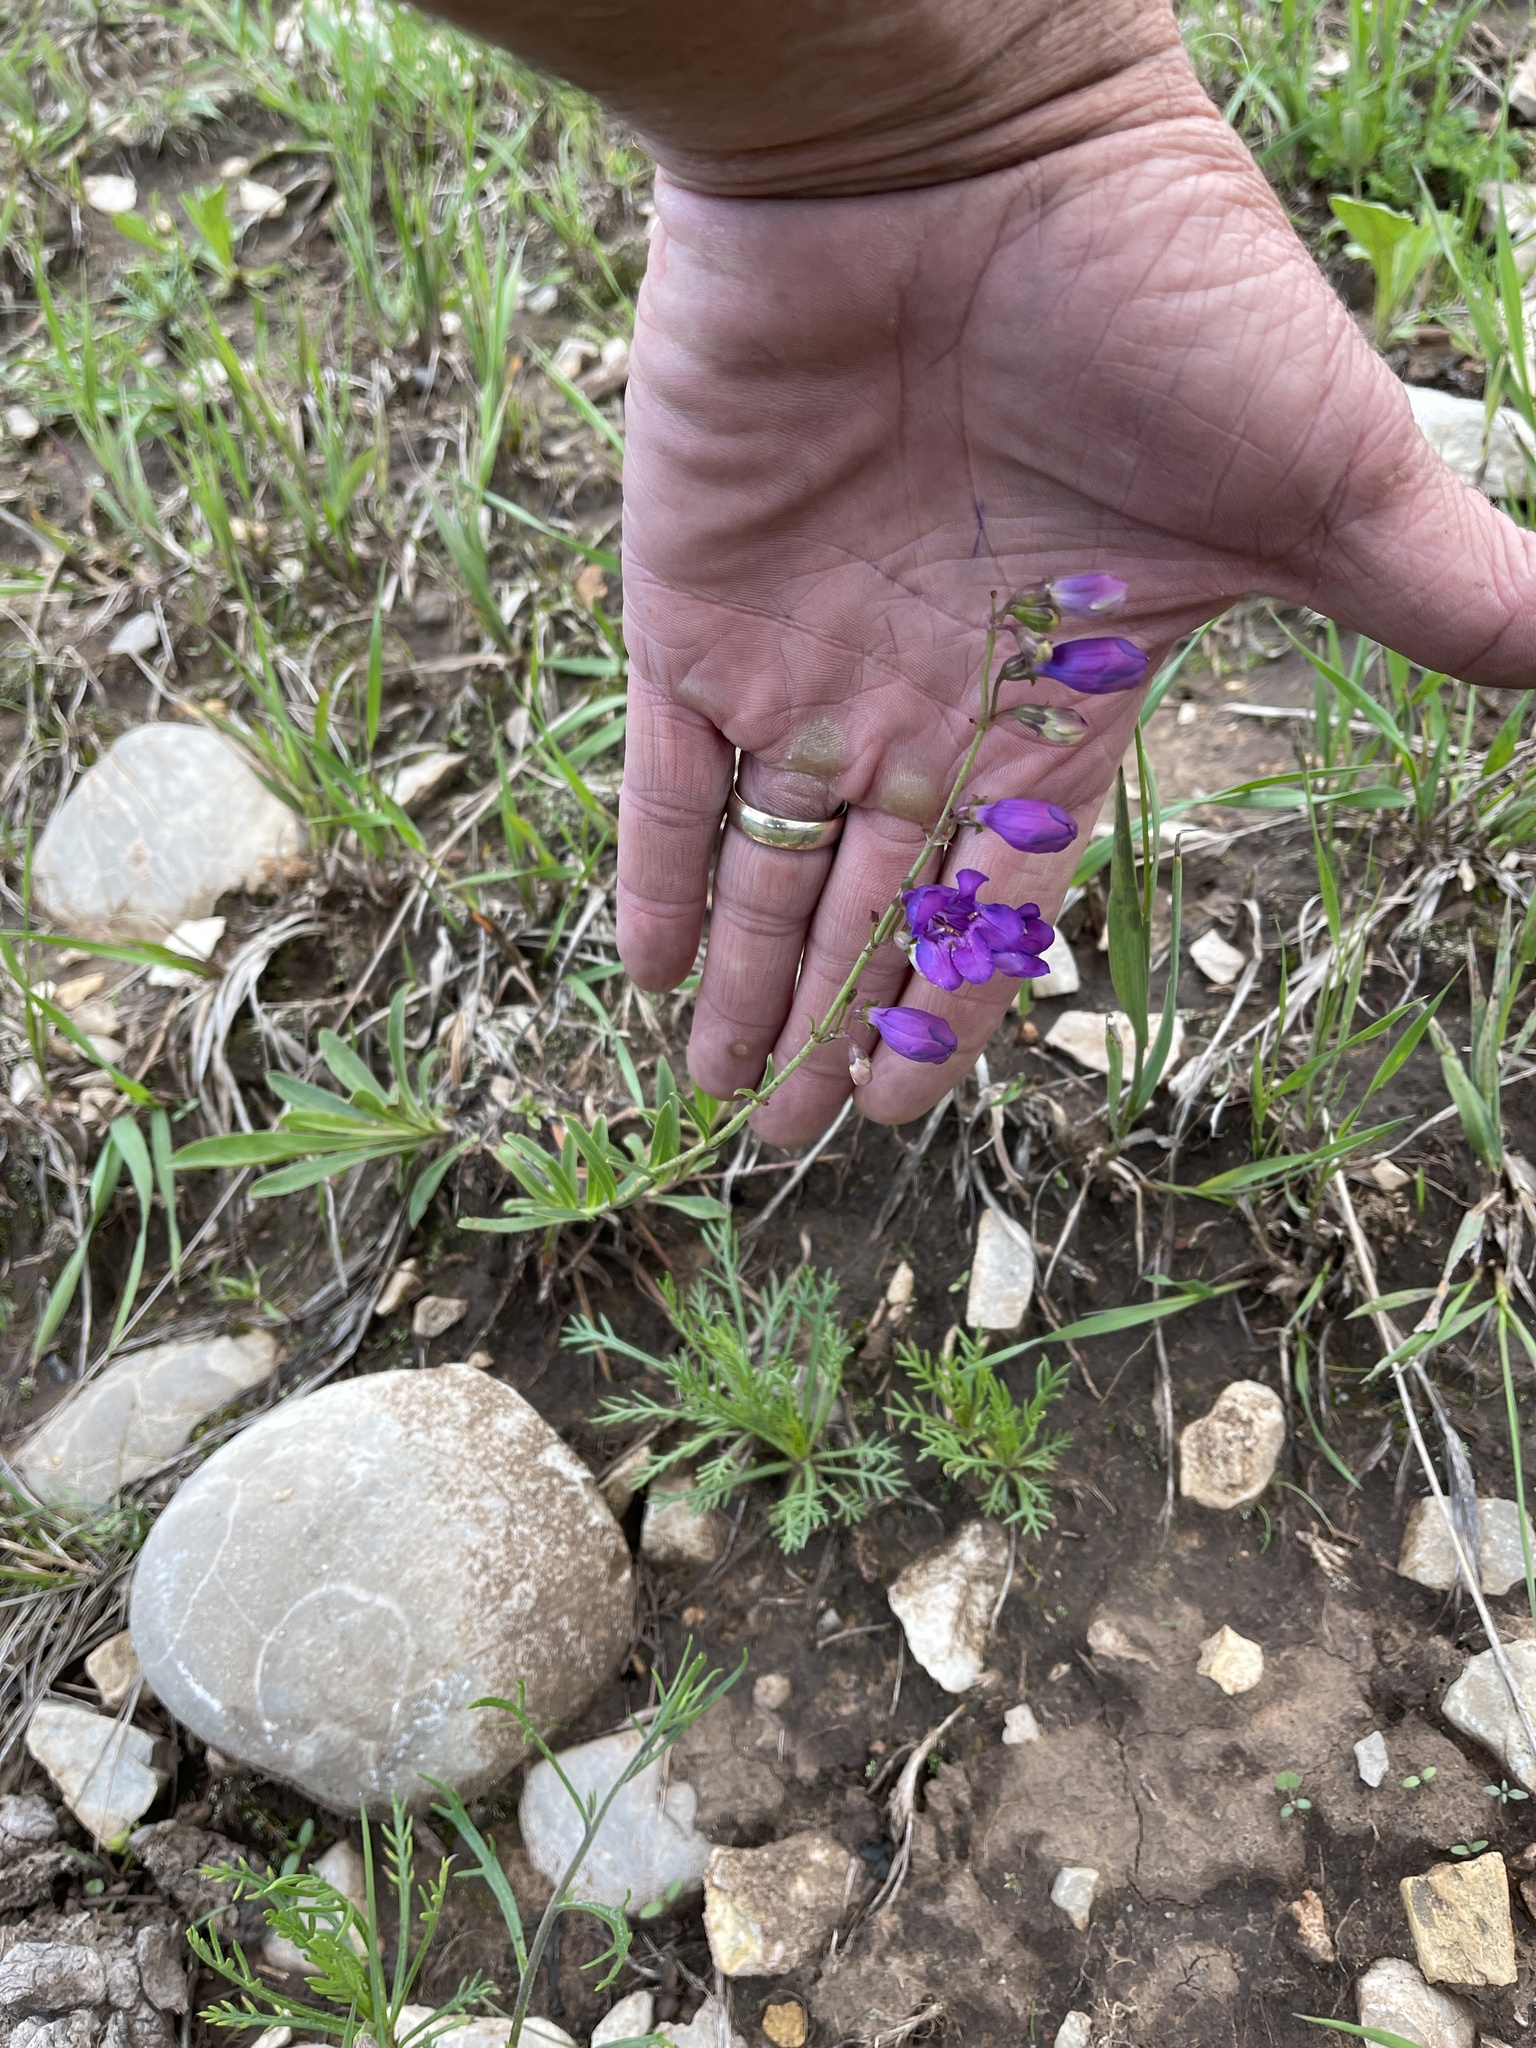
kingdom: Plantae
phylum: Tracheophyta
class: Magnoliopsida
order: Lamiales
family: Plantaginaceae
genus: Penstemon
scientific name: Penstemon neomexicanus
